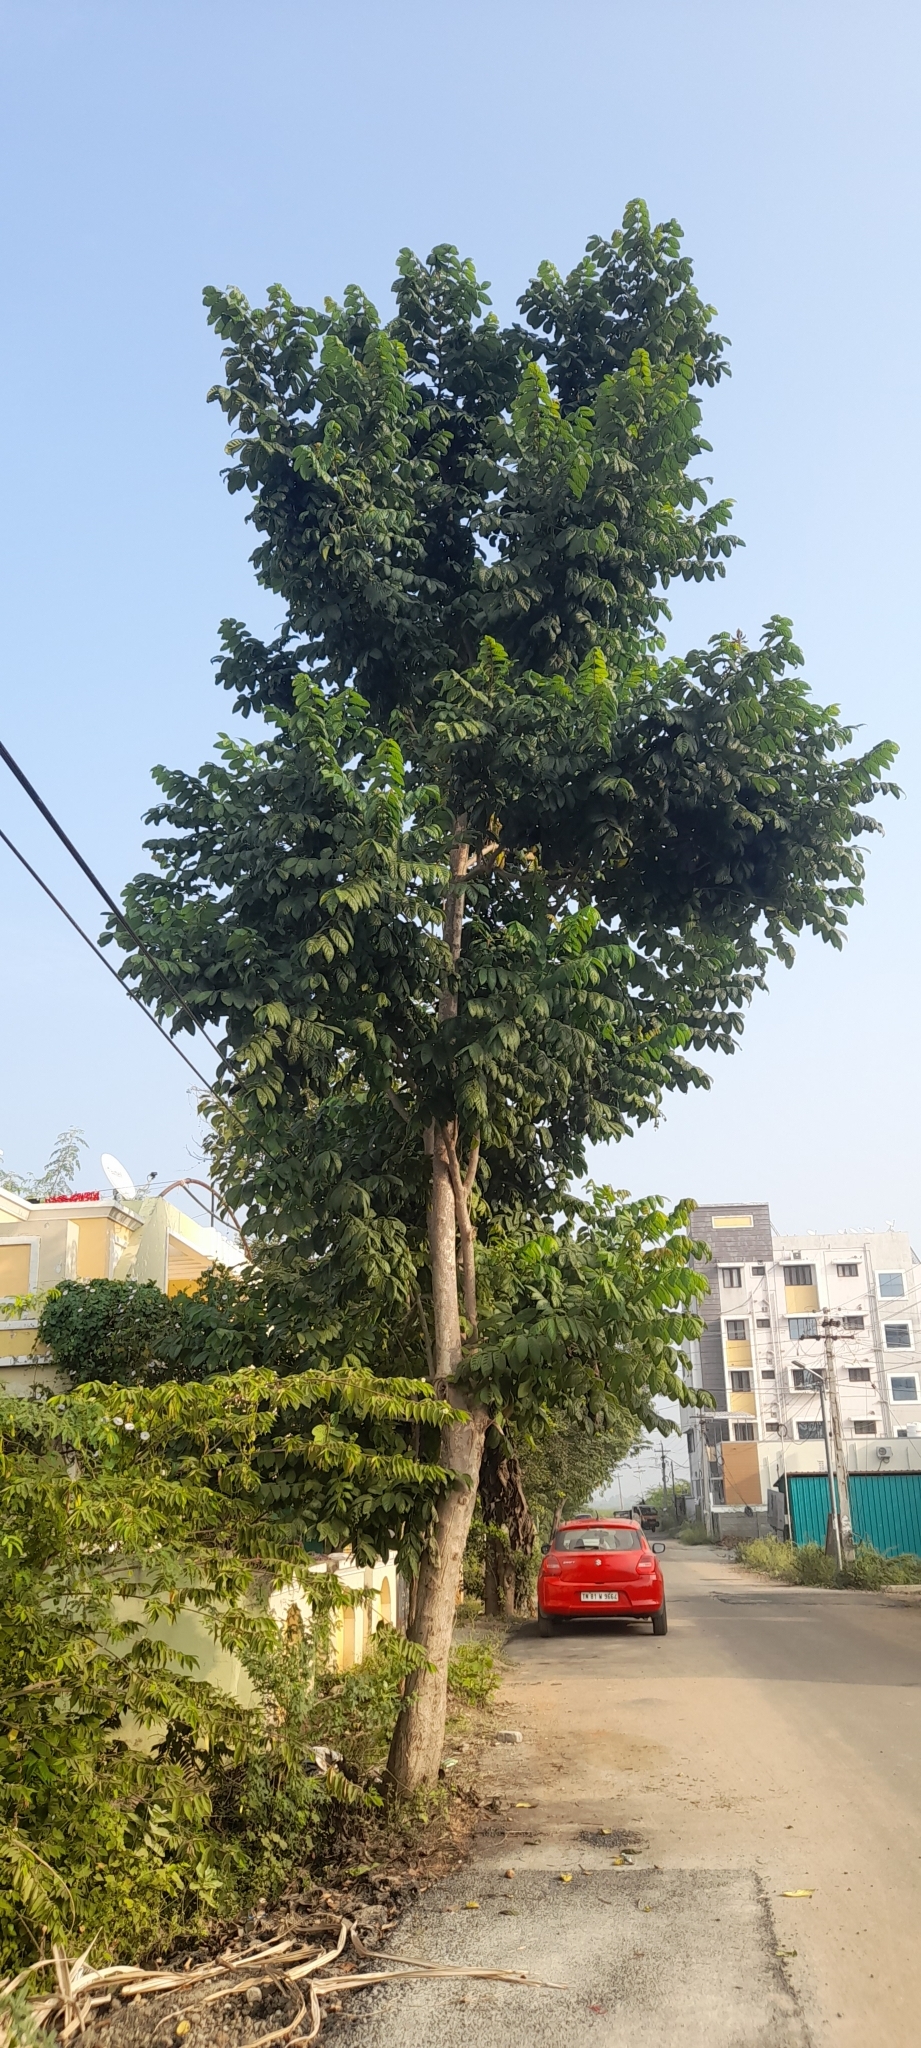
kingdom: Plantae
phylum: Tracheophyta
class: Magnoliopsida
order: Lamiales
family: Bignoniaceae
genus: Spathodea
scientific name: Spathodea campanulata
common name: African tuliptree
